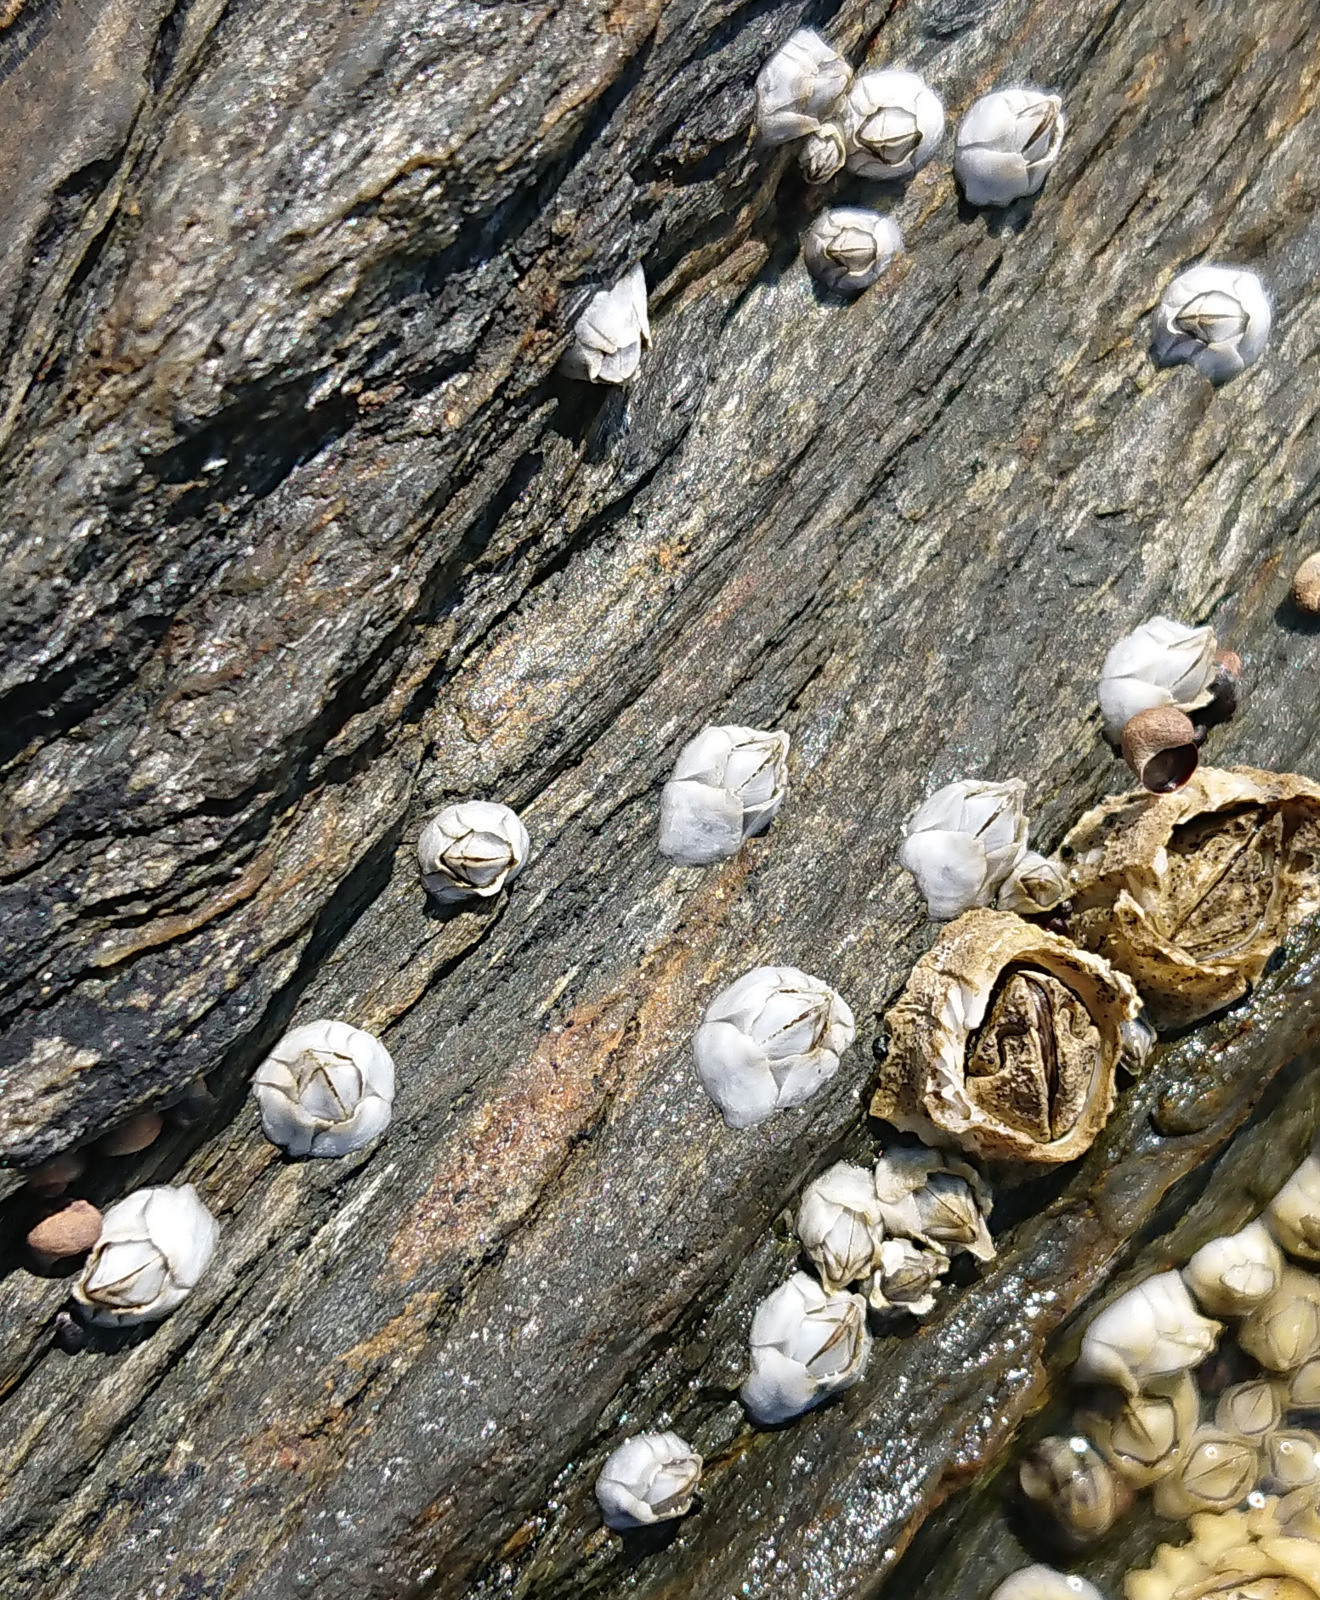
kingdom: Animalia
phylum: Arthropoda
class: Maxillopoda
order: Sessilia
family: Archaeobalanidae
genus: Semibalanus
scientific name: Semibalanus balanoides
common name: Acorn barnacle
